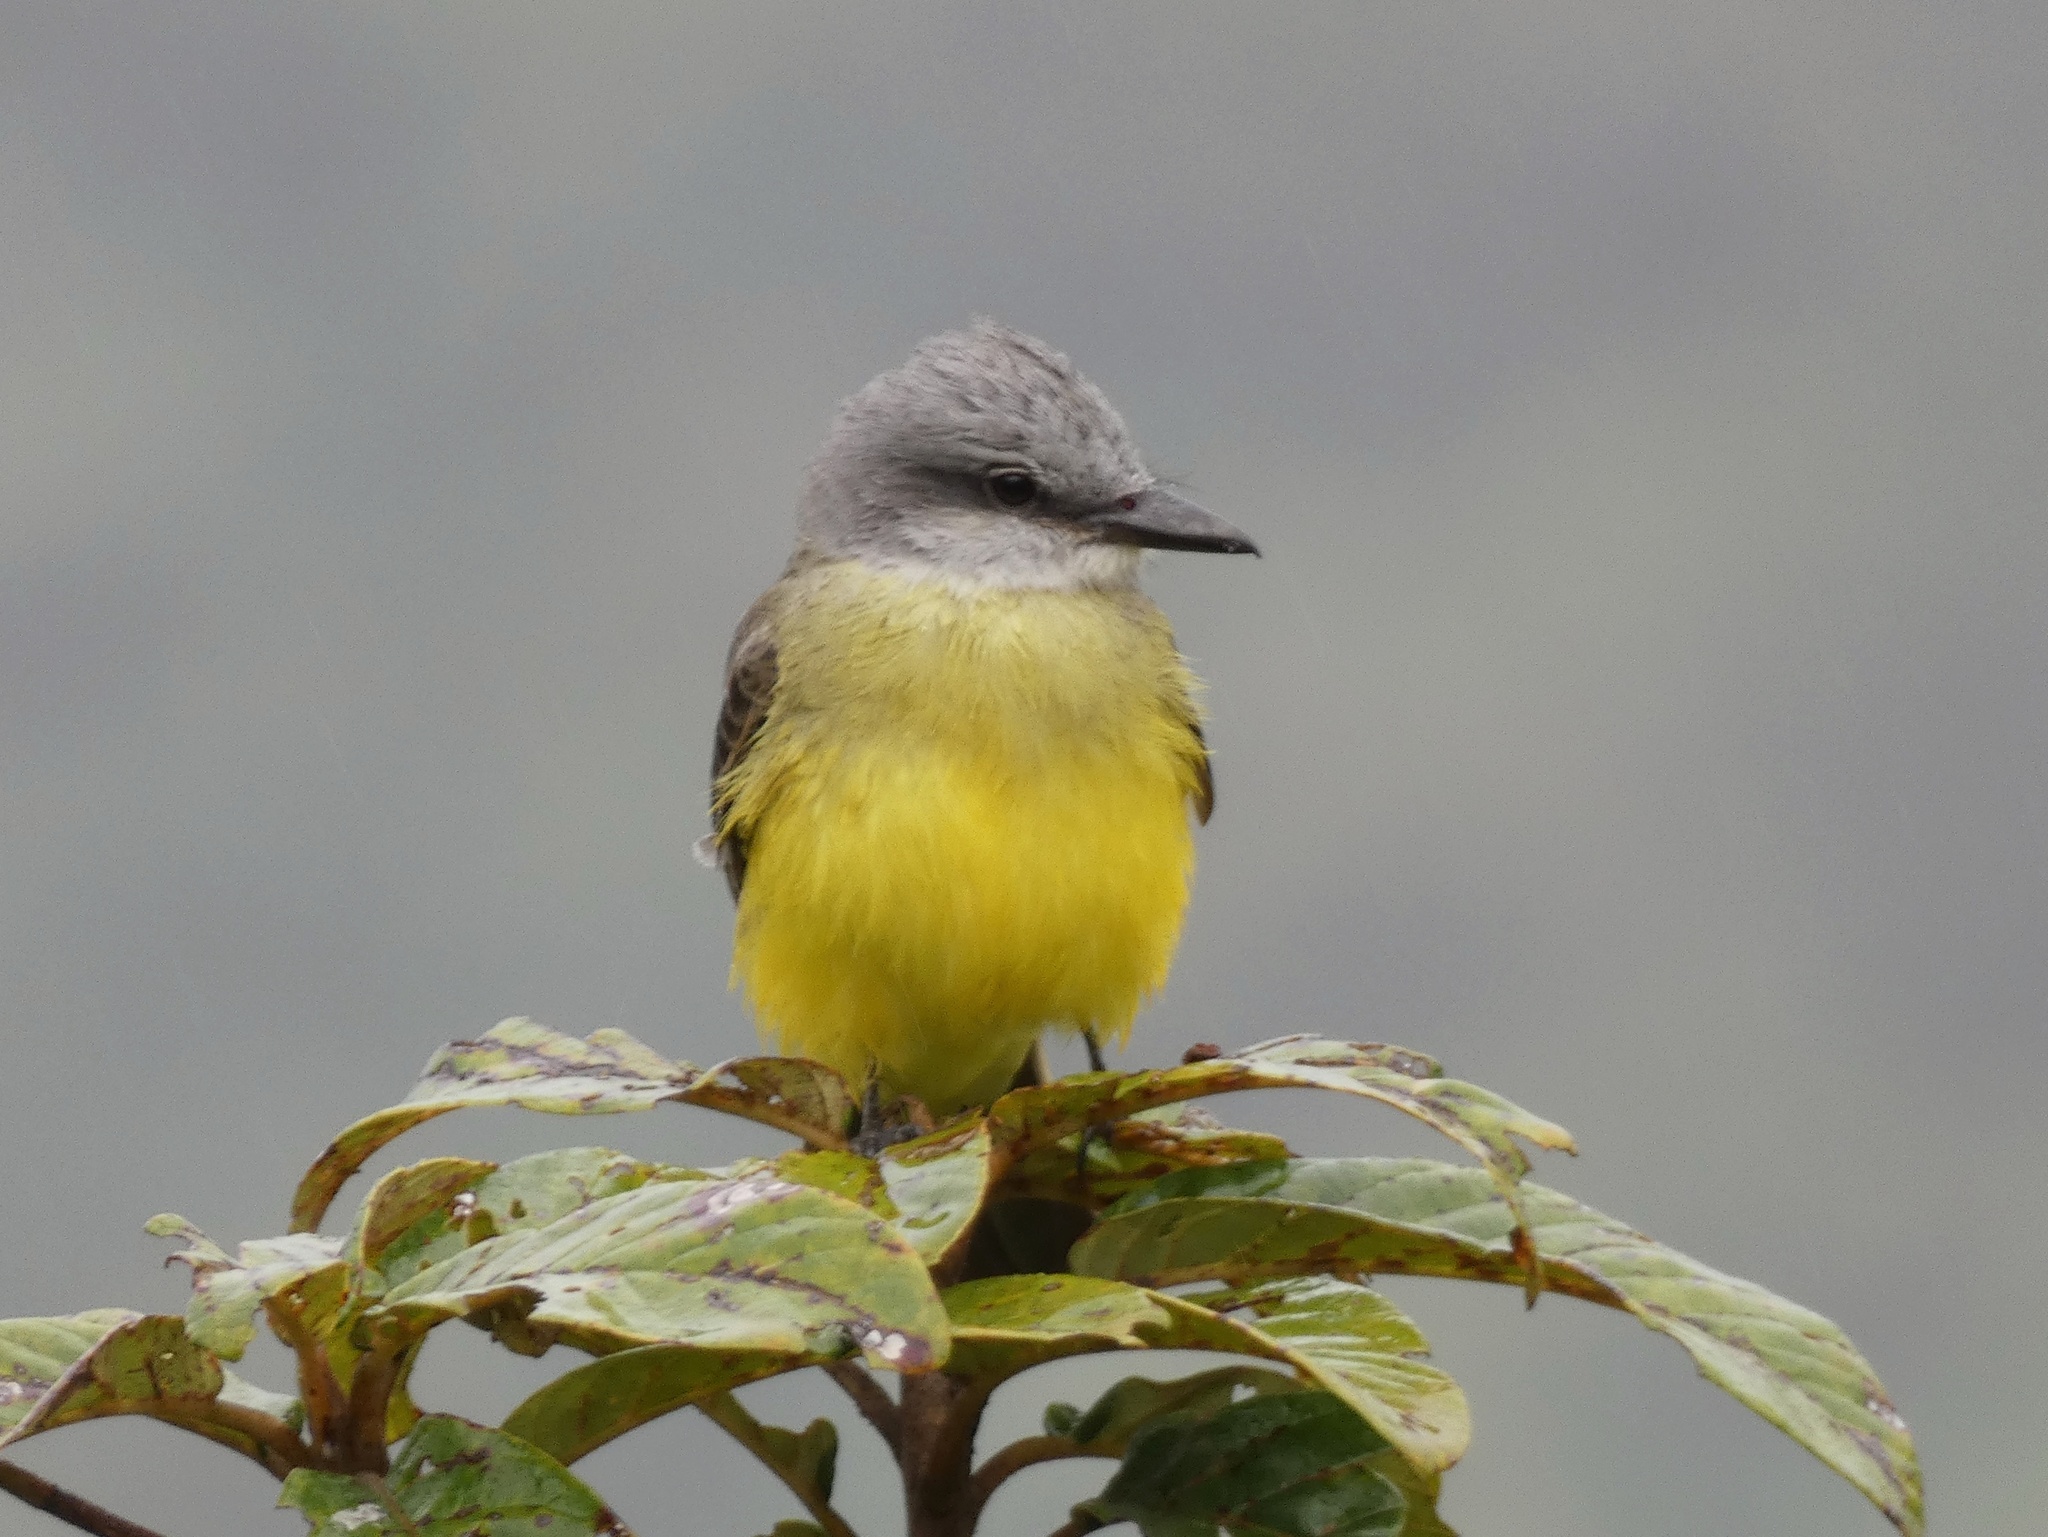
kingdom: Animalia
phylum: Chordata
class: Aves
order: Passeriformes
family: Tyrannidae
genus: Tyrannus
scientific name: Tyrannus melancholicus
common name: Tropical kingbird
